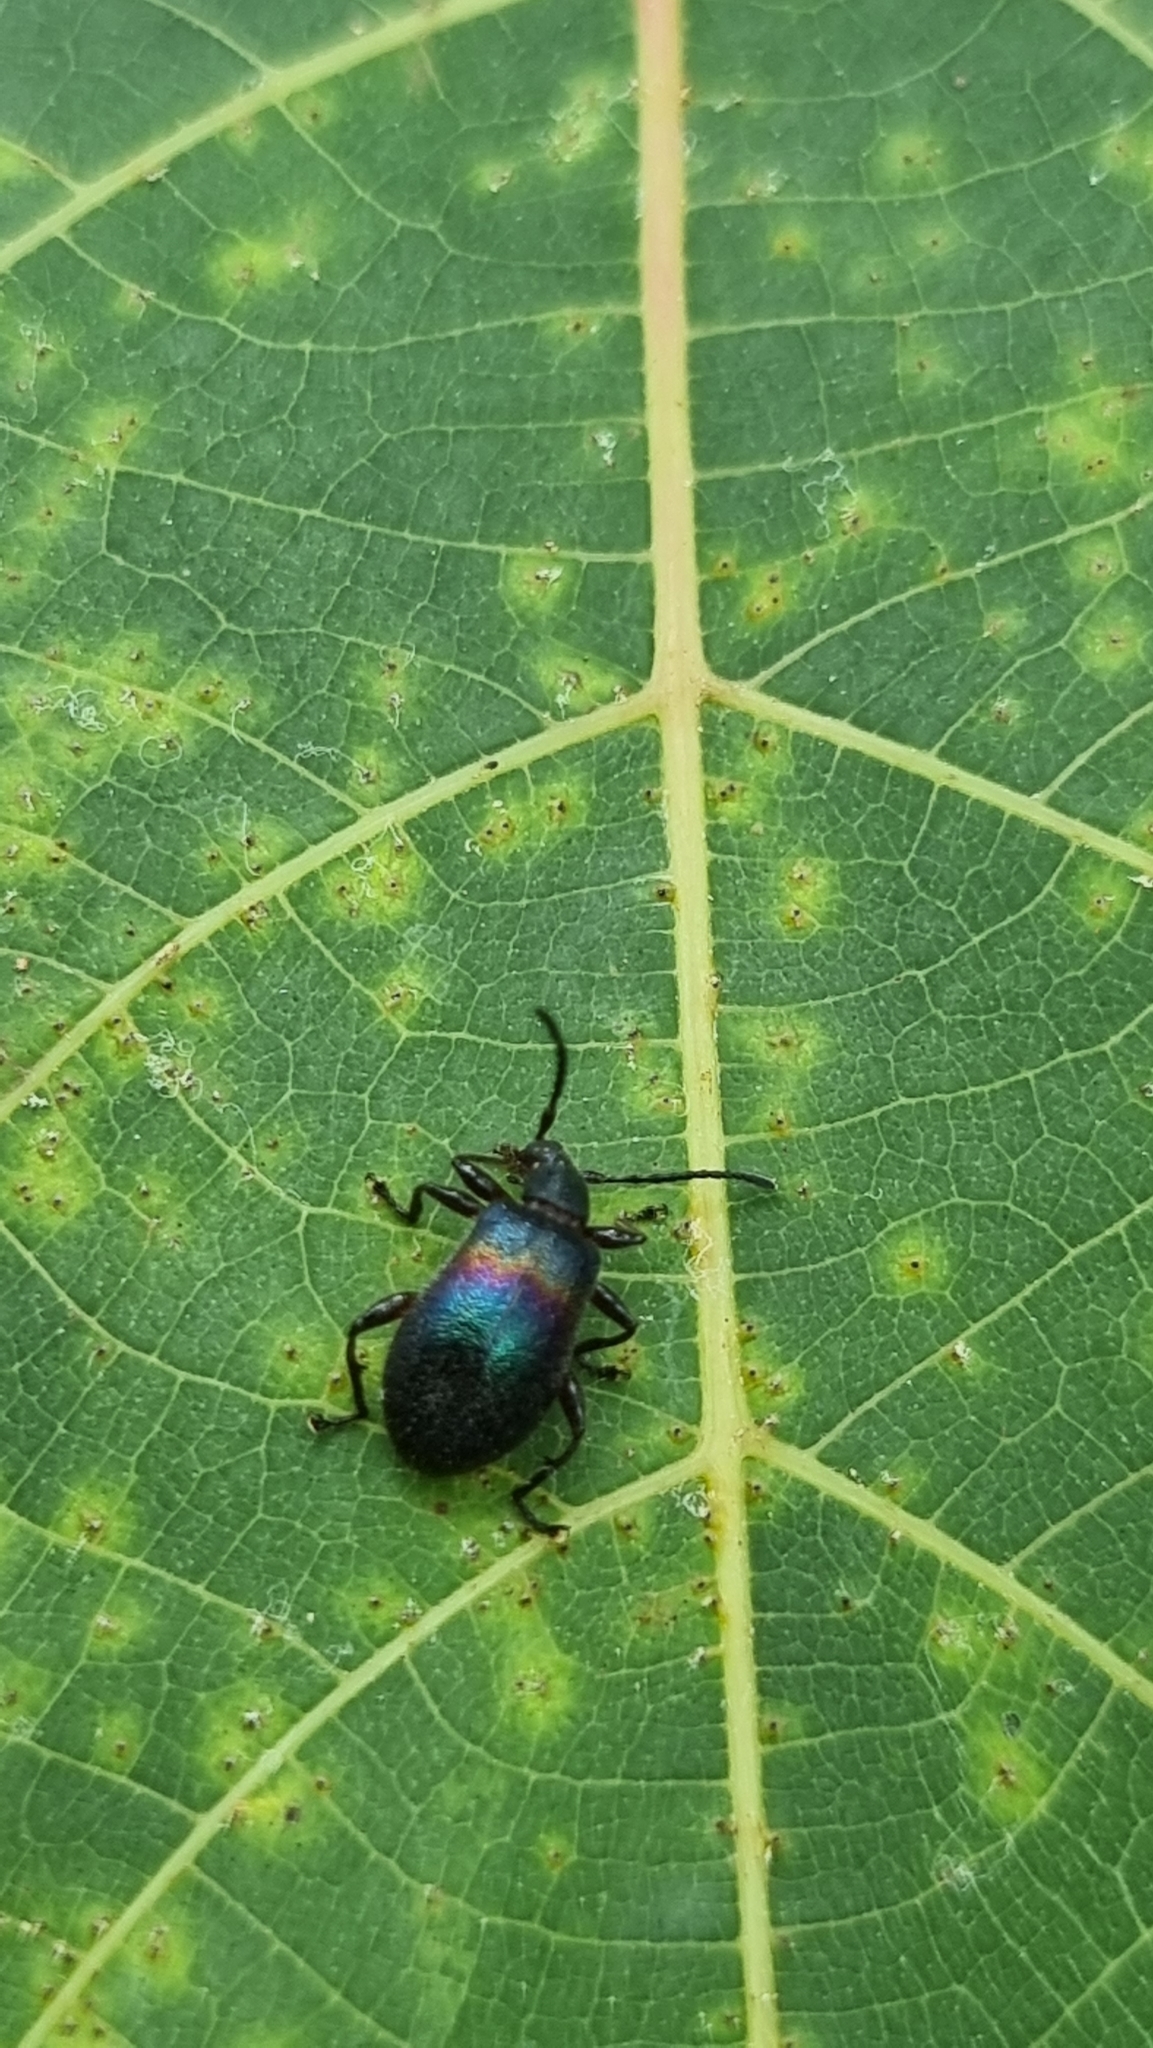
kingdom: Animalia
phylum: Arthropoda
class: Insecta
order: Coleoptera
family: Tenebrionidae
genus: Ecnolagria
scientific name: Ecnolagria
